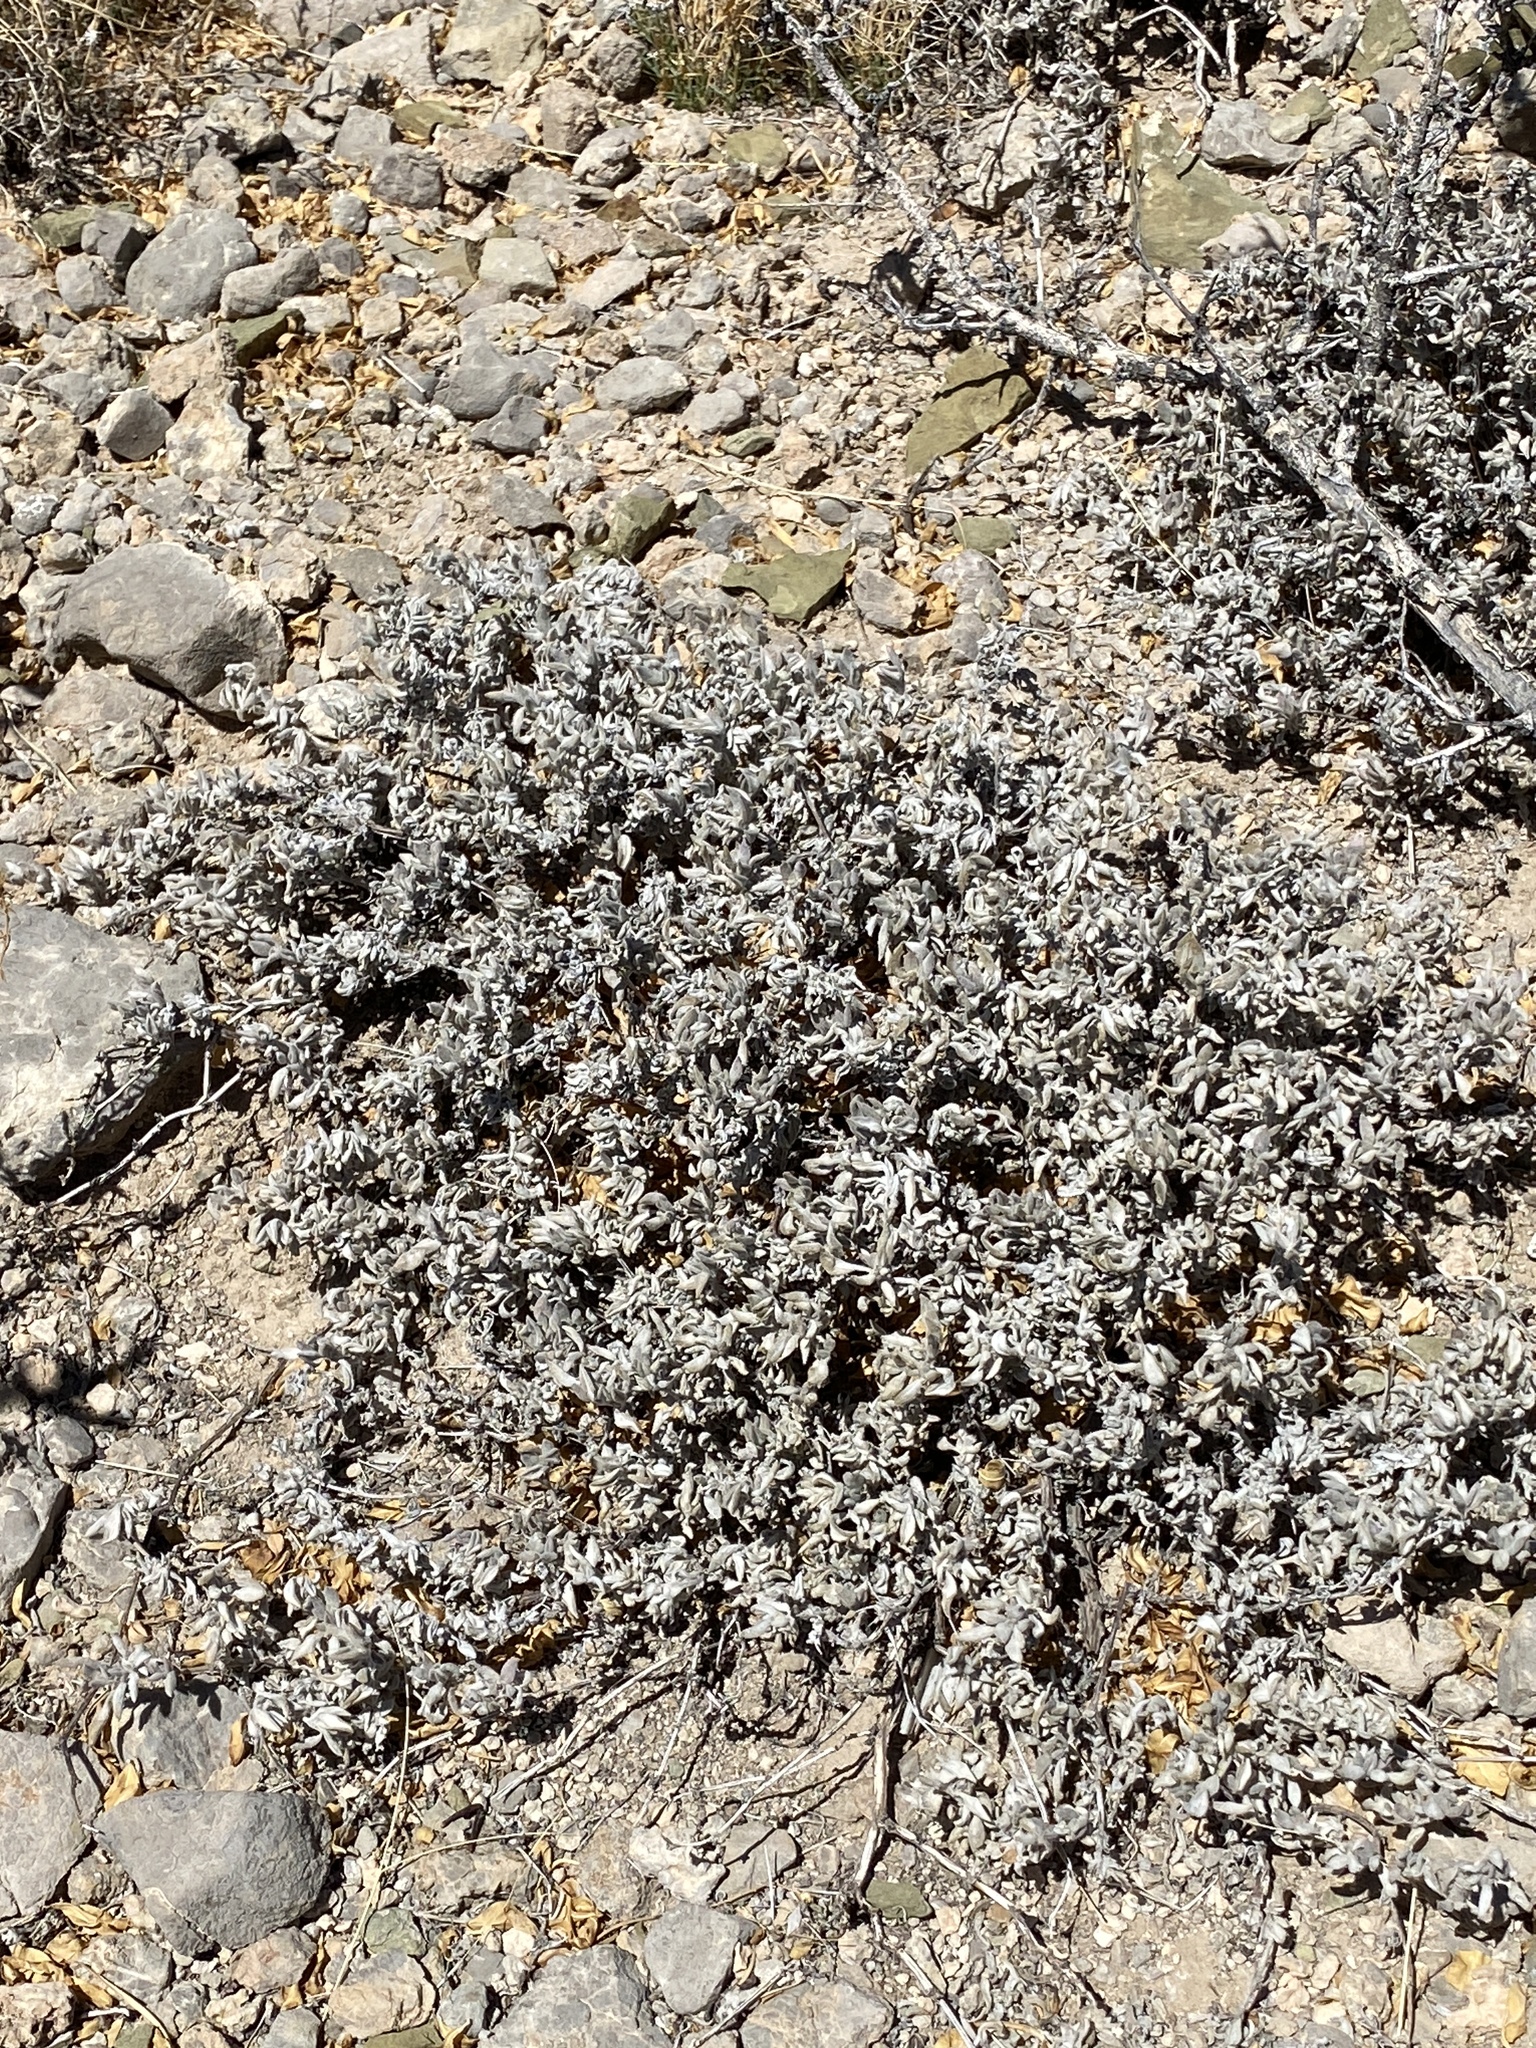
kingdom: Plantae
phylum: Tracheophyta
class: Magnoliopsida
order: Boraginales
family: Ehretiaceae
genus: Tiquilia
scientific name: Tiquilia canescens
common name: Hairy tiquilia
